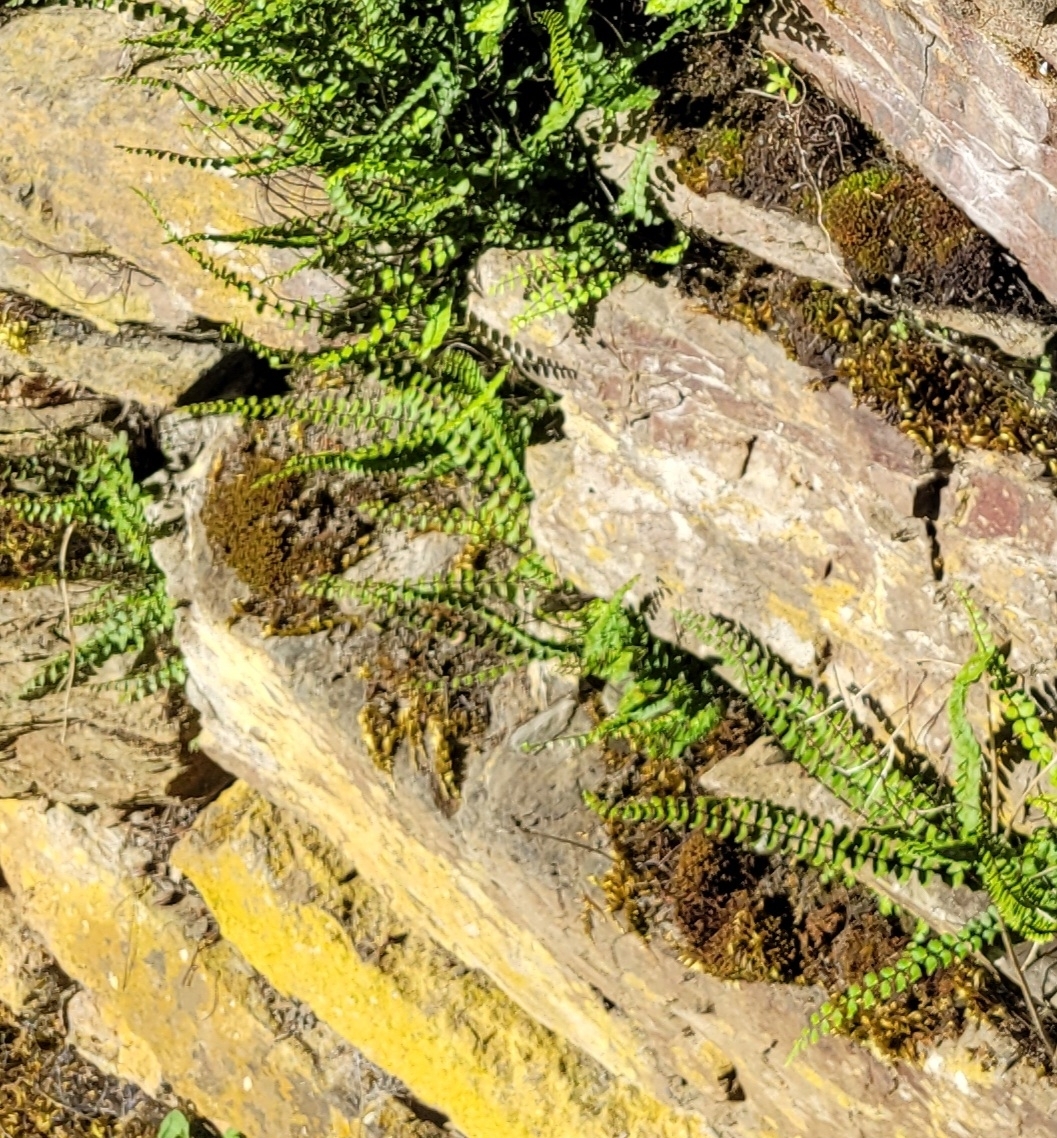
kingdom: Plantae
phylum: Tracheophyta
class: Polypodiopsida
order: Polypodiales
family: Aspleniaceae
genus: Asplenium
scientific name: Asplenium trichomanes
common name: Maidenhair spleenwort
